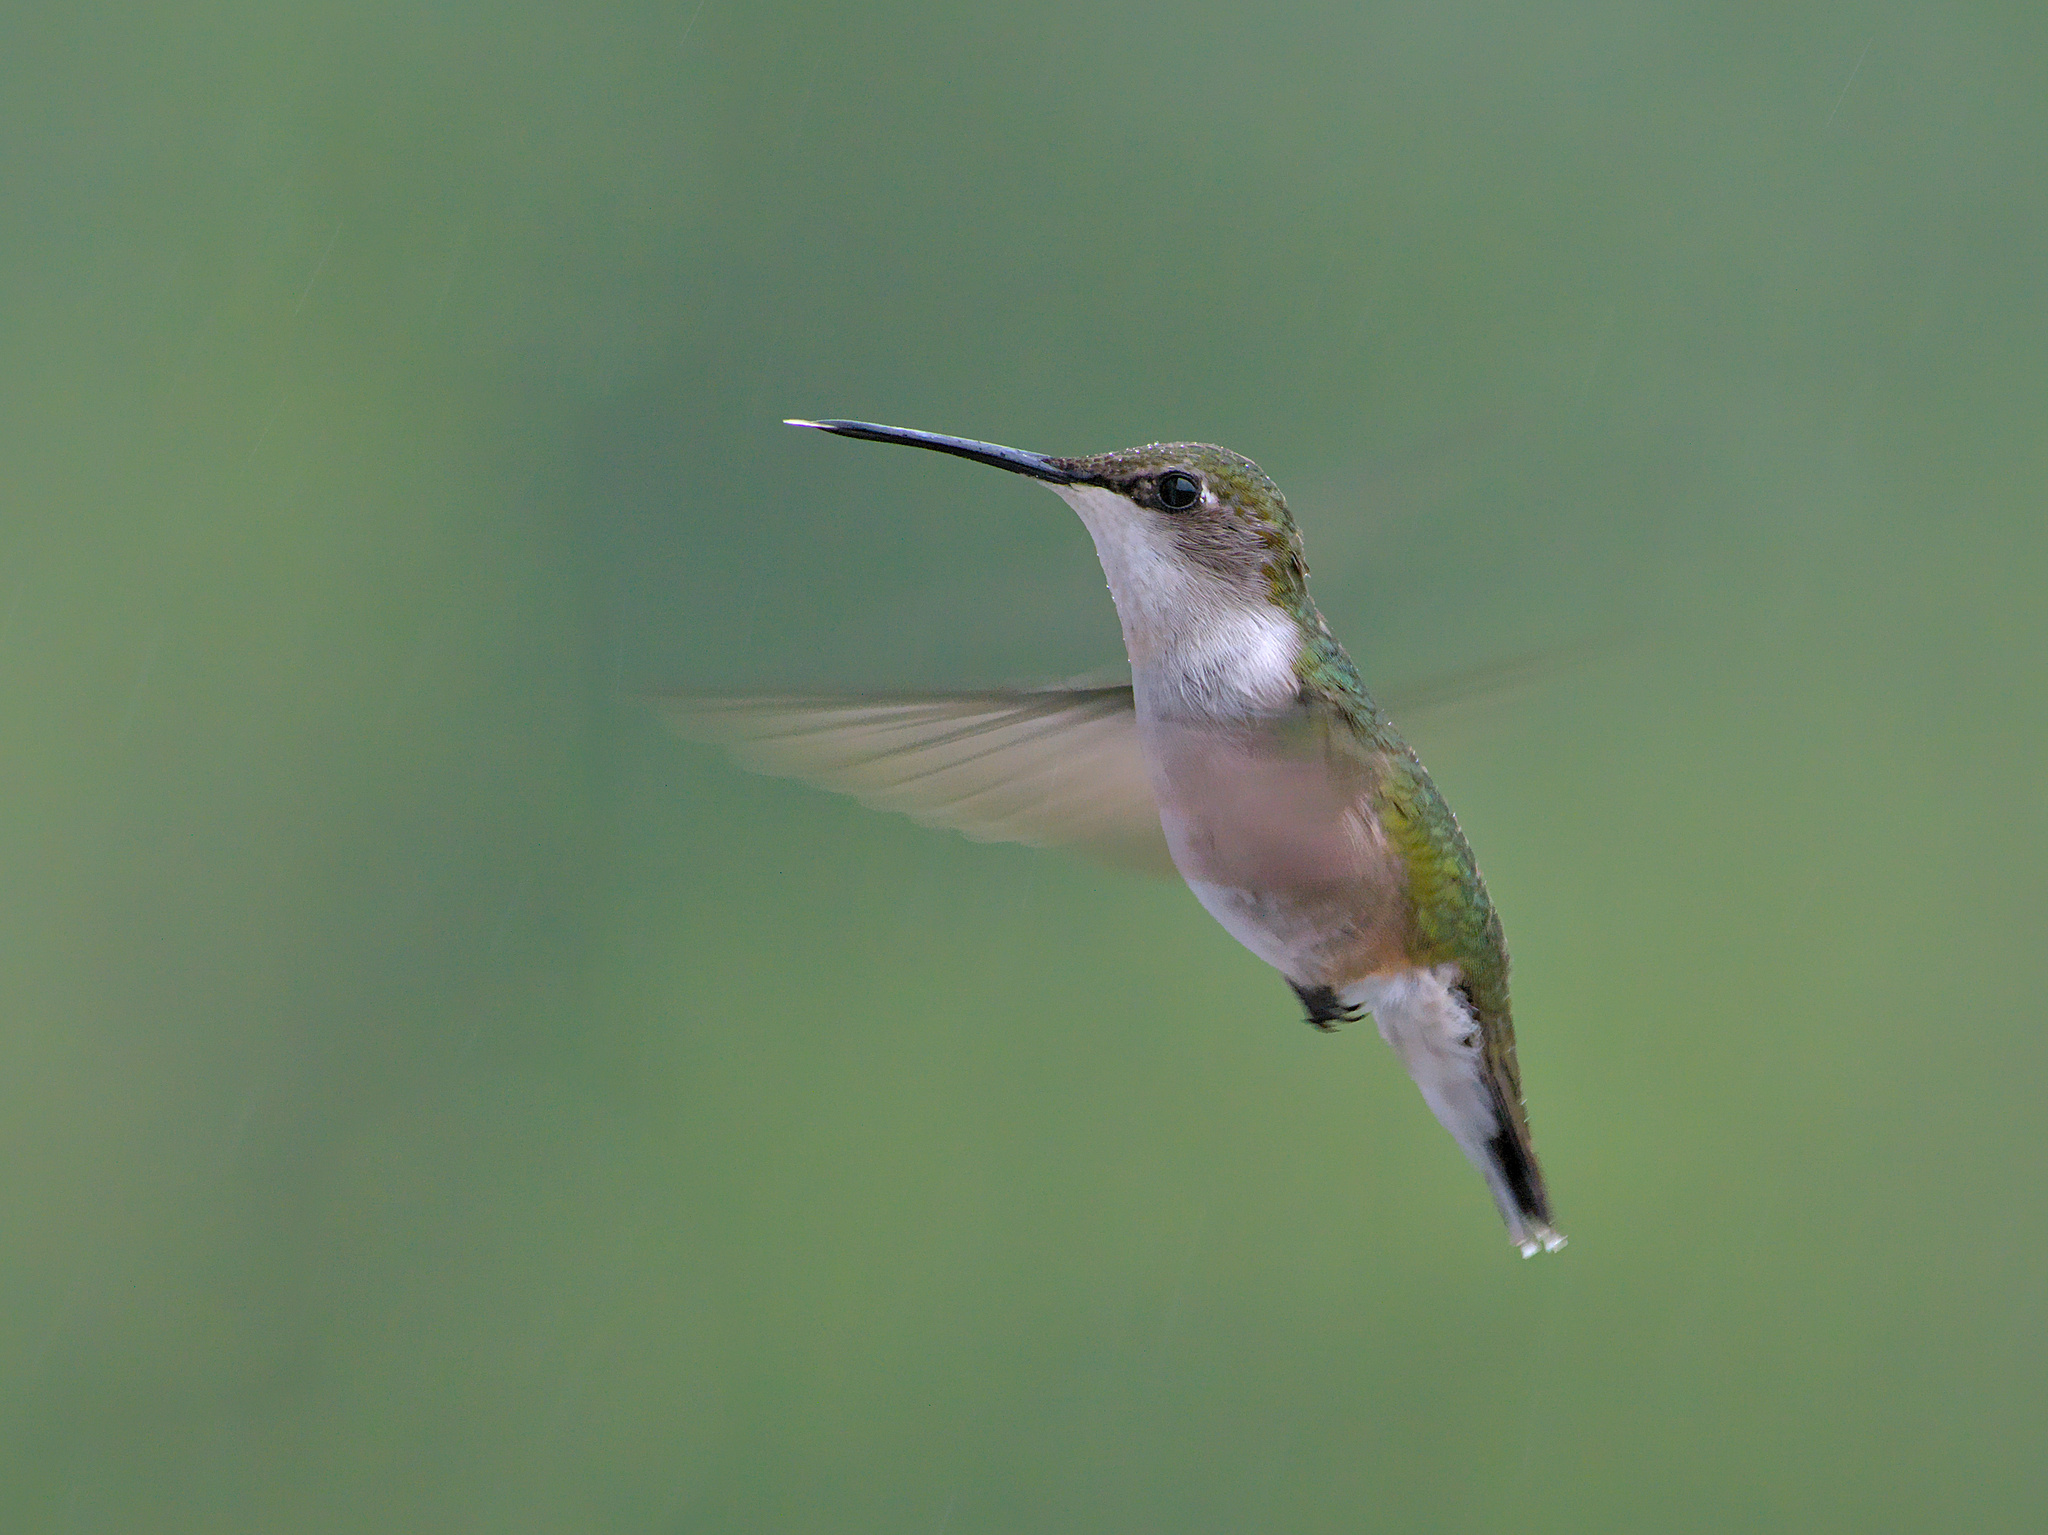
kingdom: Animalia
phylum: Chordata
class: Aves
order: Apodiformes
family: Trochilidae
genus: Archilochus
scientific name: Archilochus colubris
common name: Ruby-throated hummingbird
